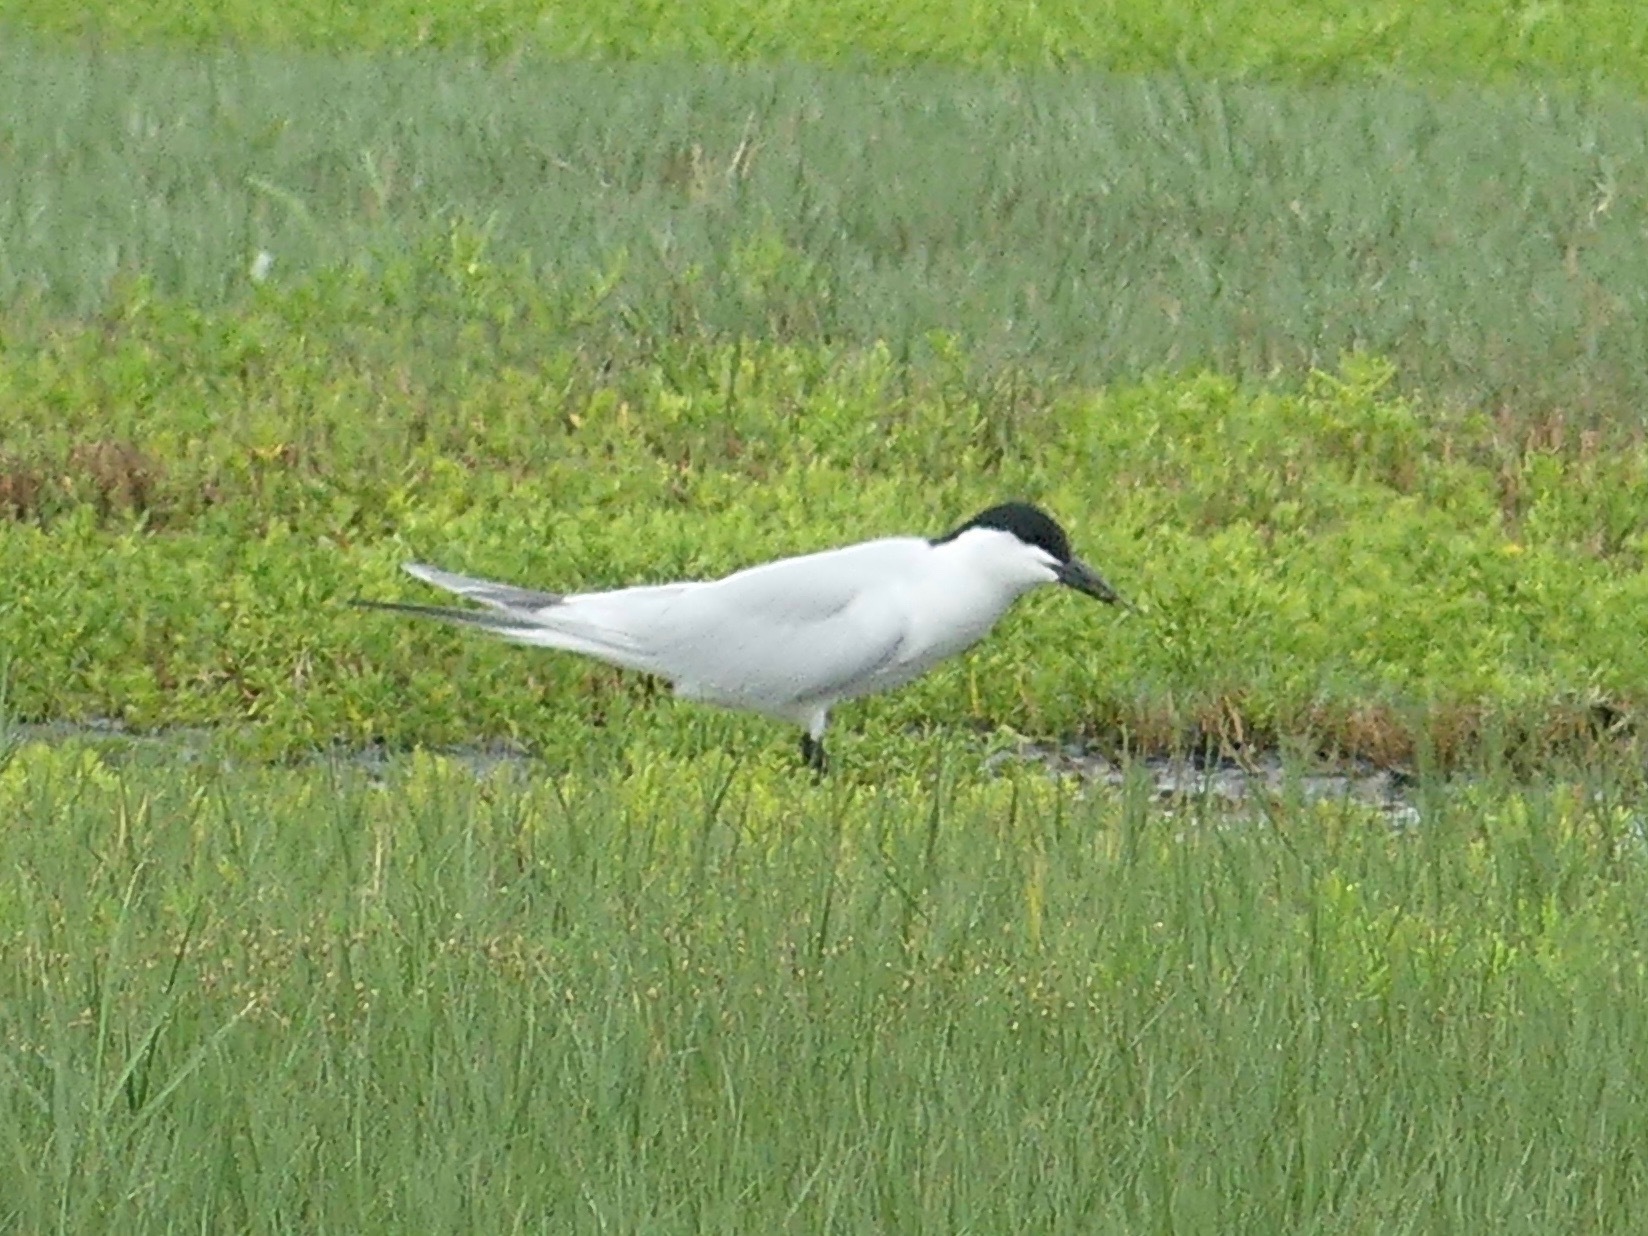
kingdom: Animalia
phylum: Chordata
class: Aves
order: Charadriiformes
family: Laridae
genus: Gelochelidon
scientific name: Gelochelidon nilotica
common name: Gull-billed tern
